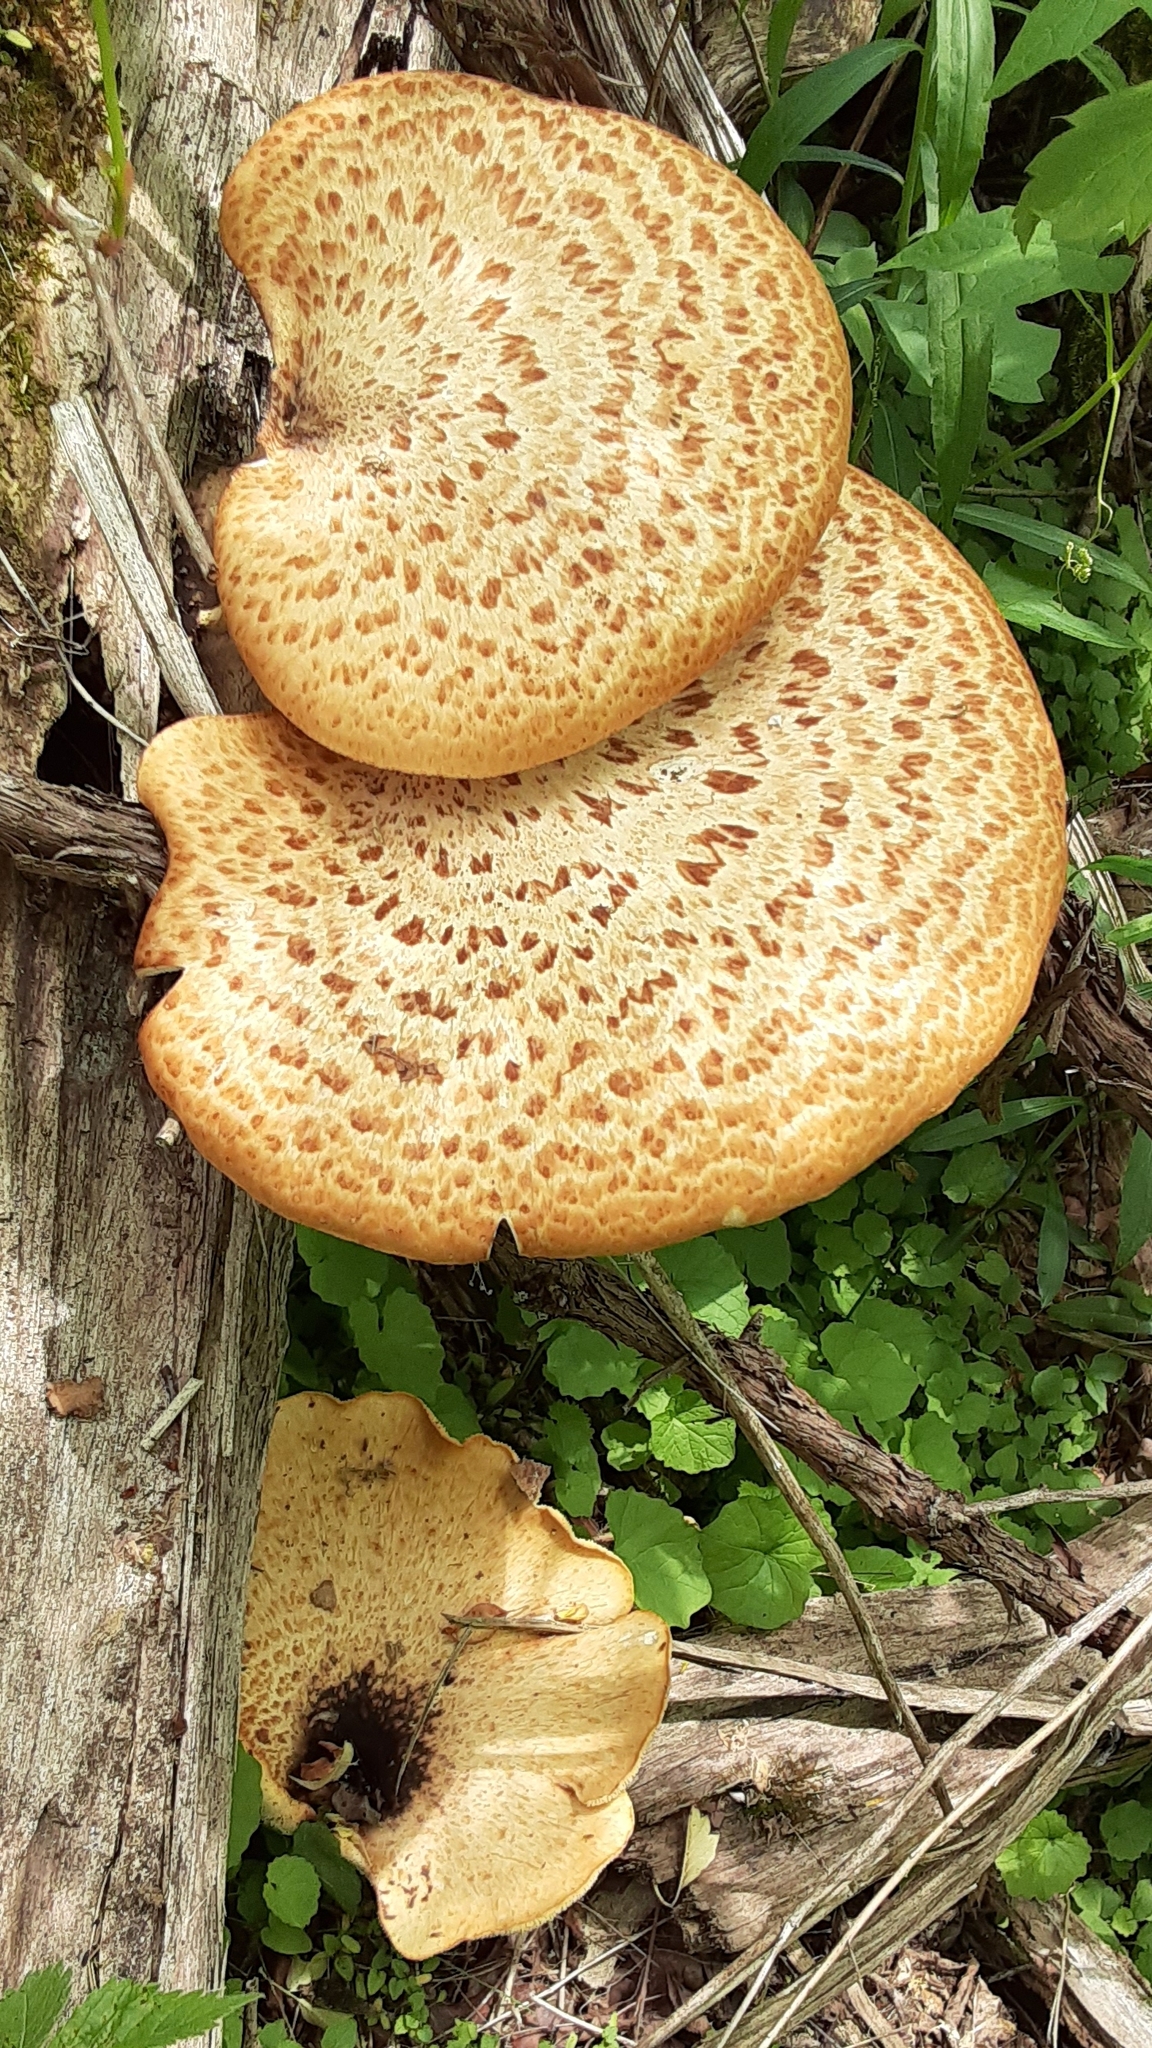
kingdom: Fungi
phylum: Basidiomycota
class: Agaricomycetes
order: Polyporales
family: Polyporaceae
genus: Cerioporus
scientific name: Cerioporus squamosus
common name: Dryad's saddle
